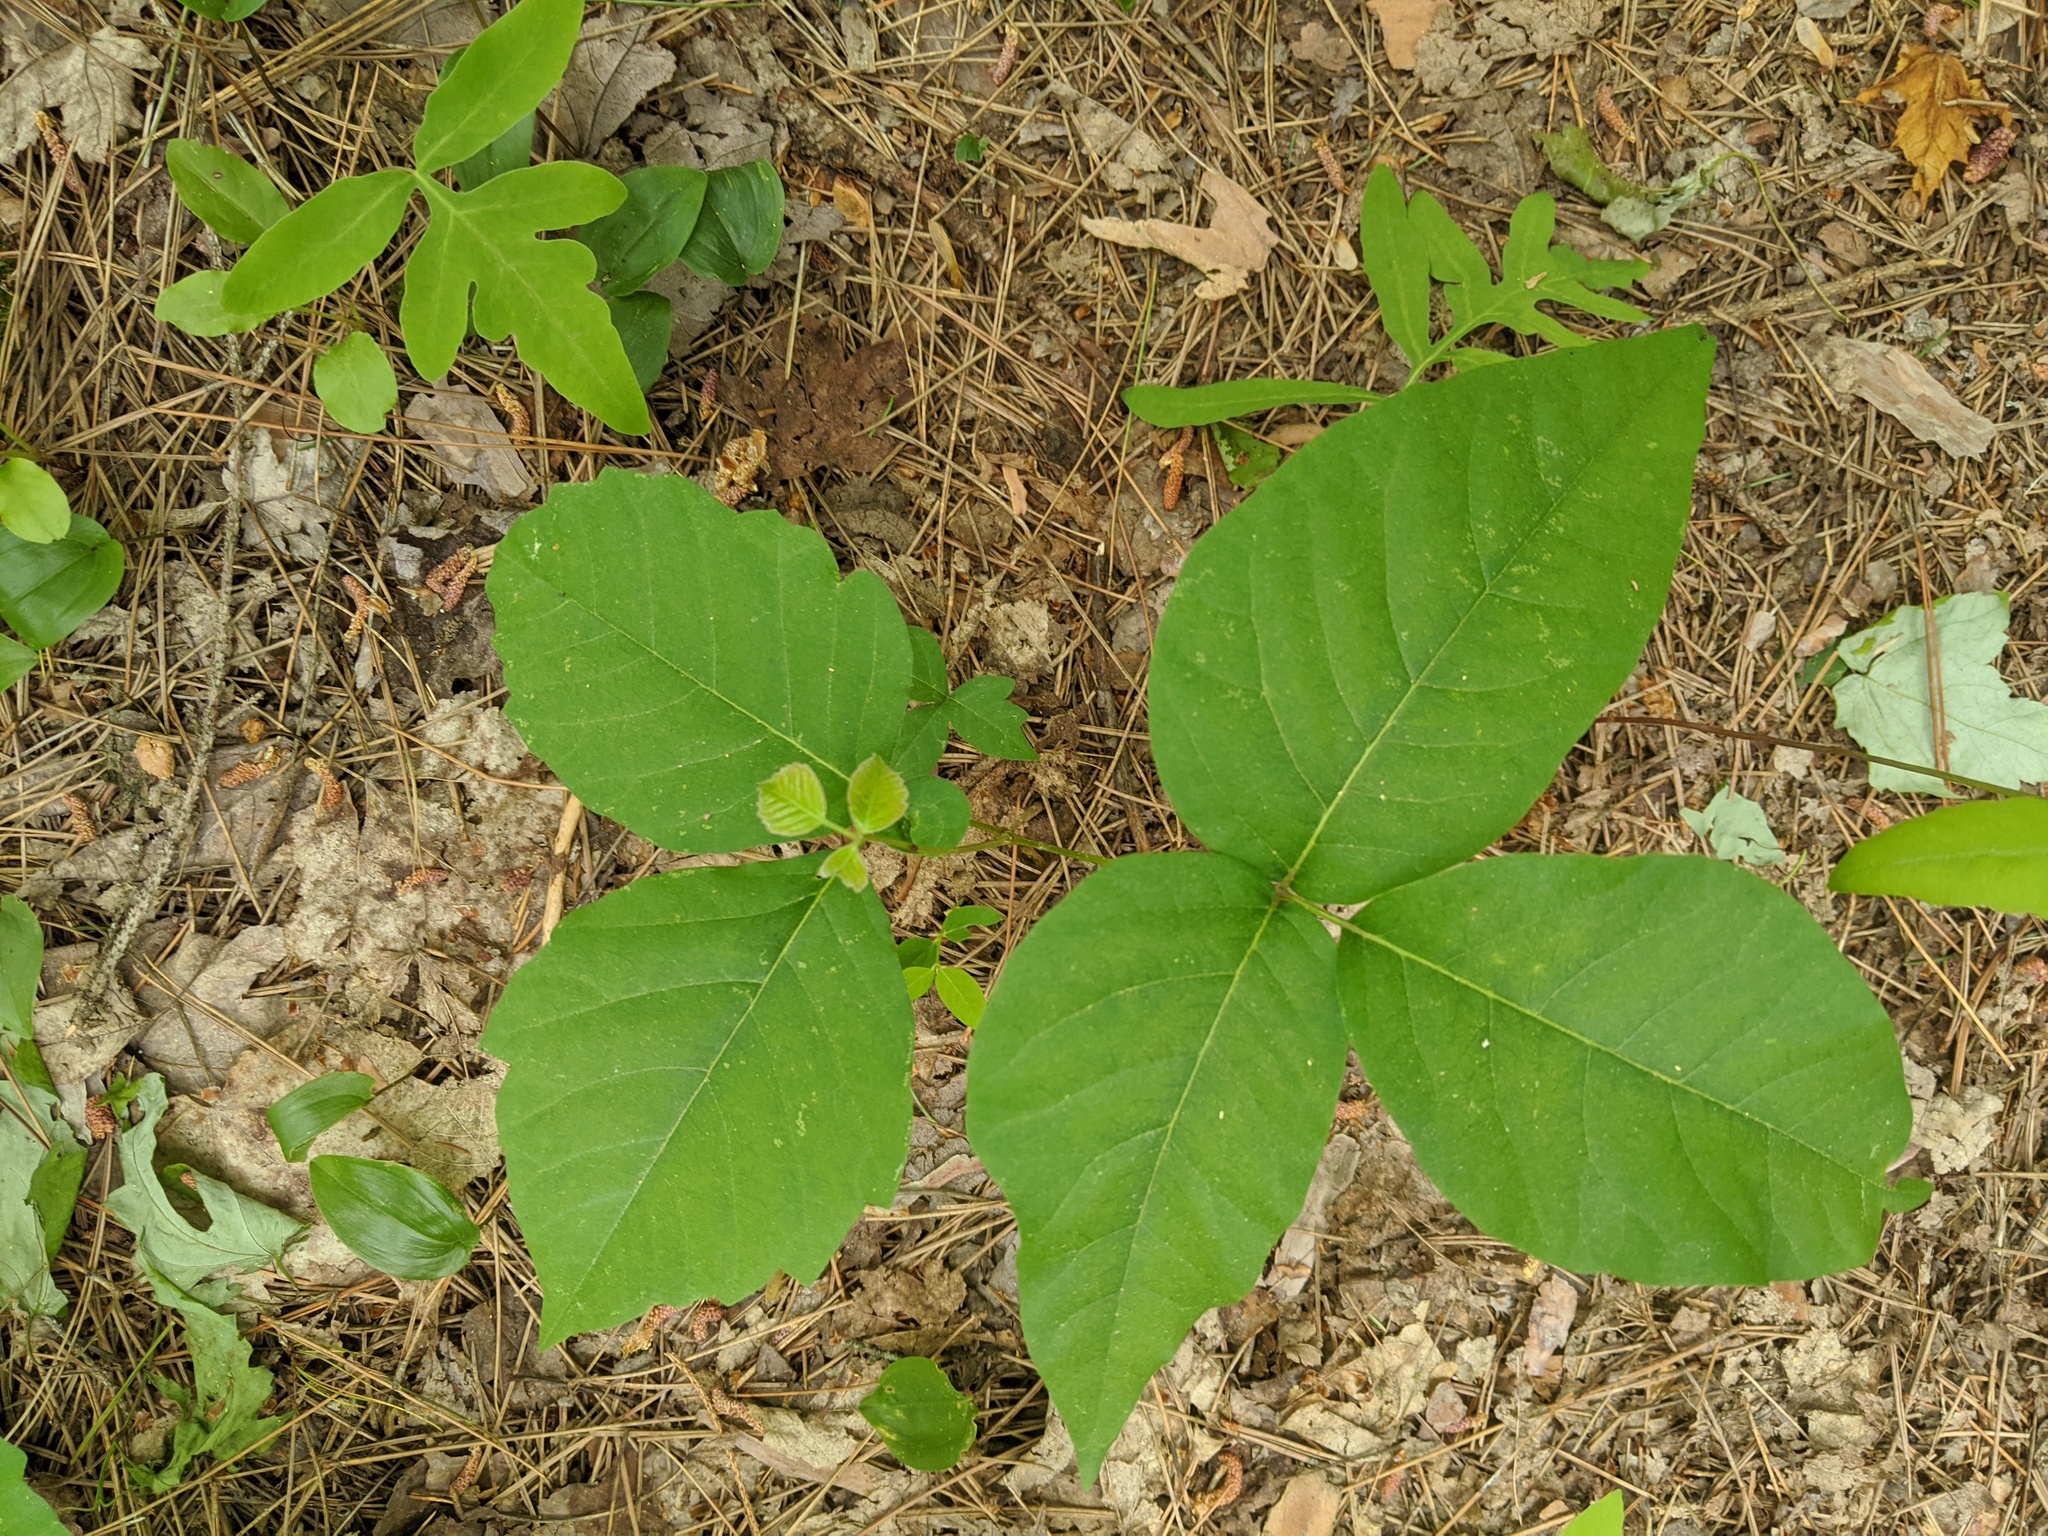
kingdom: Plantae
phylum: Tracheophyta
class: Magnoliopsida
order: Sapindales
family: Anacardiaceae
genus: Toxicodendron
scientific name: Toxicodendron rydbergii
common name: Rydberg's poison-ivy
